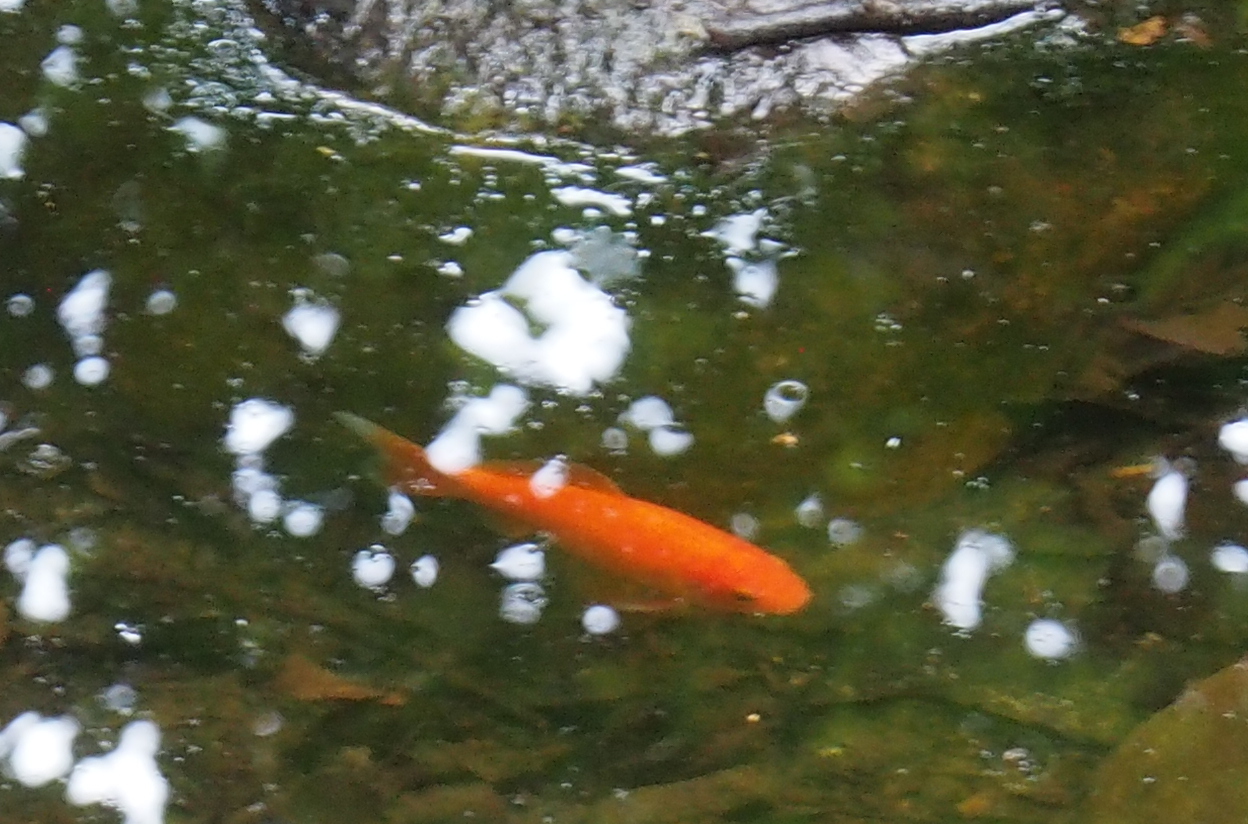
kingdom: Animalia
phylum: Chordata
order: Cypriniformes
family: Cyprinidae
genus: Carassius
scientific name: Carassius auratus
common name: Goldfish
